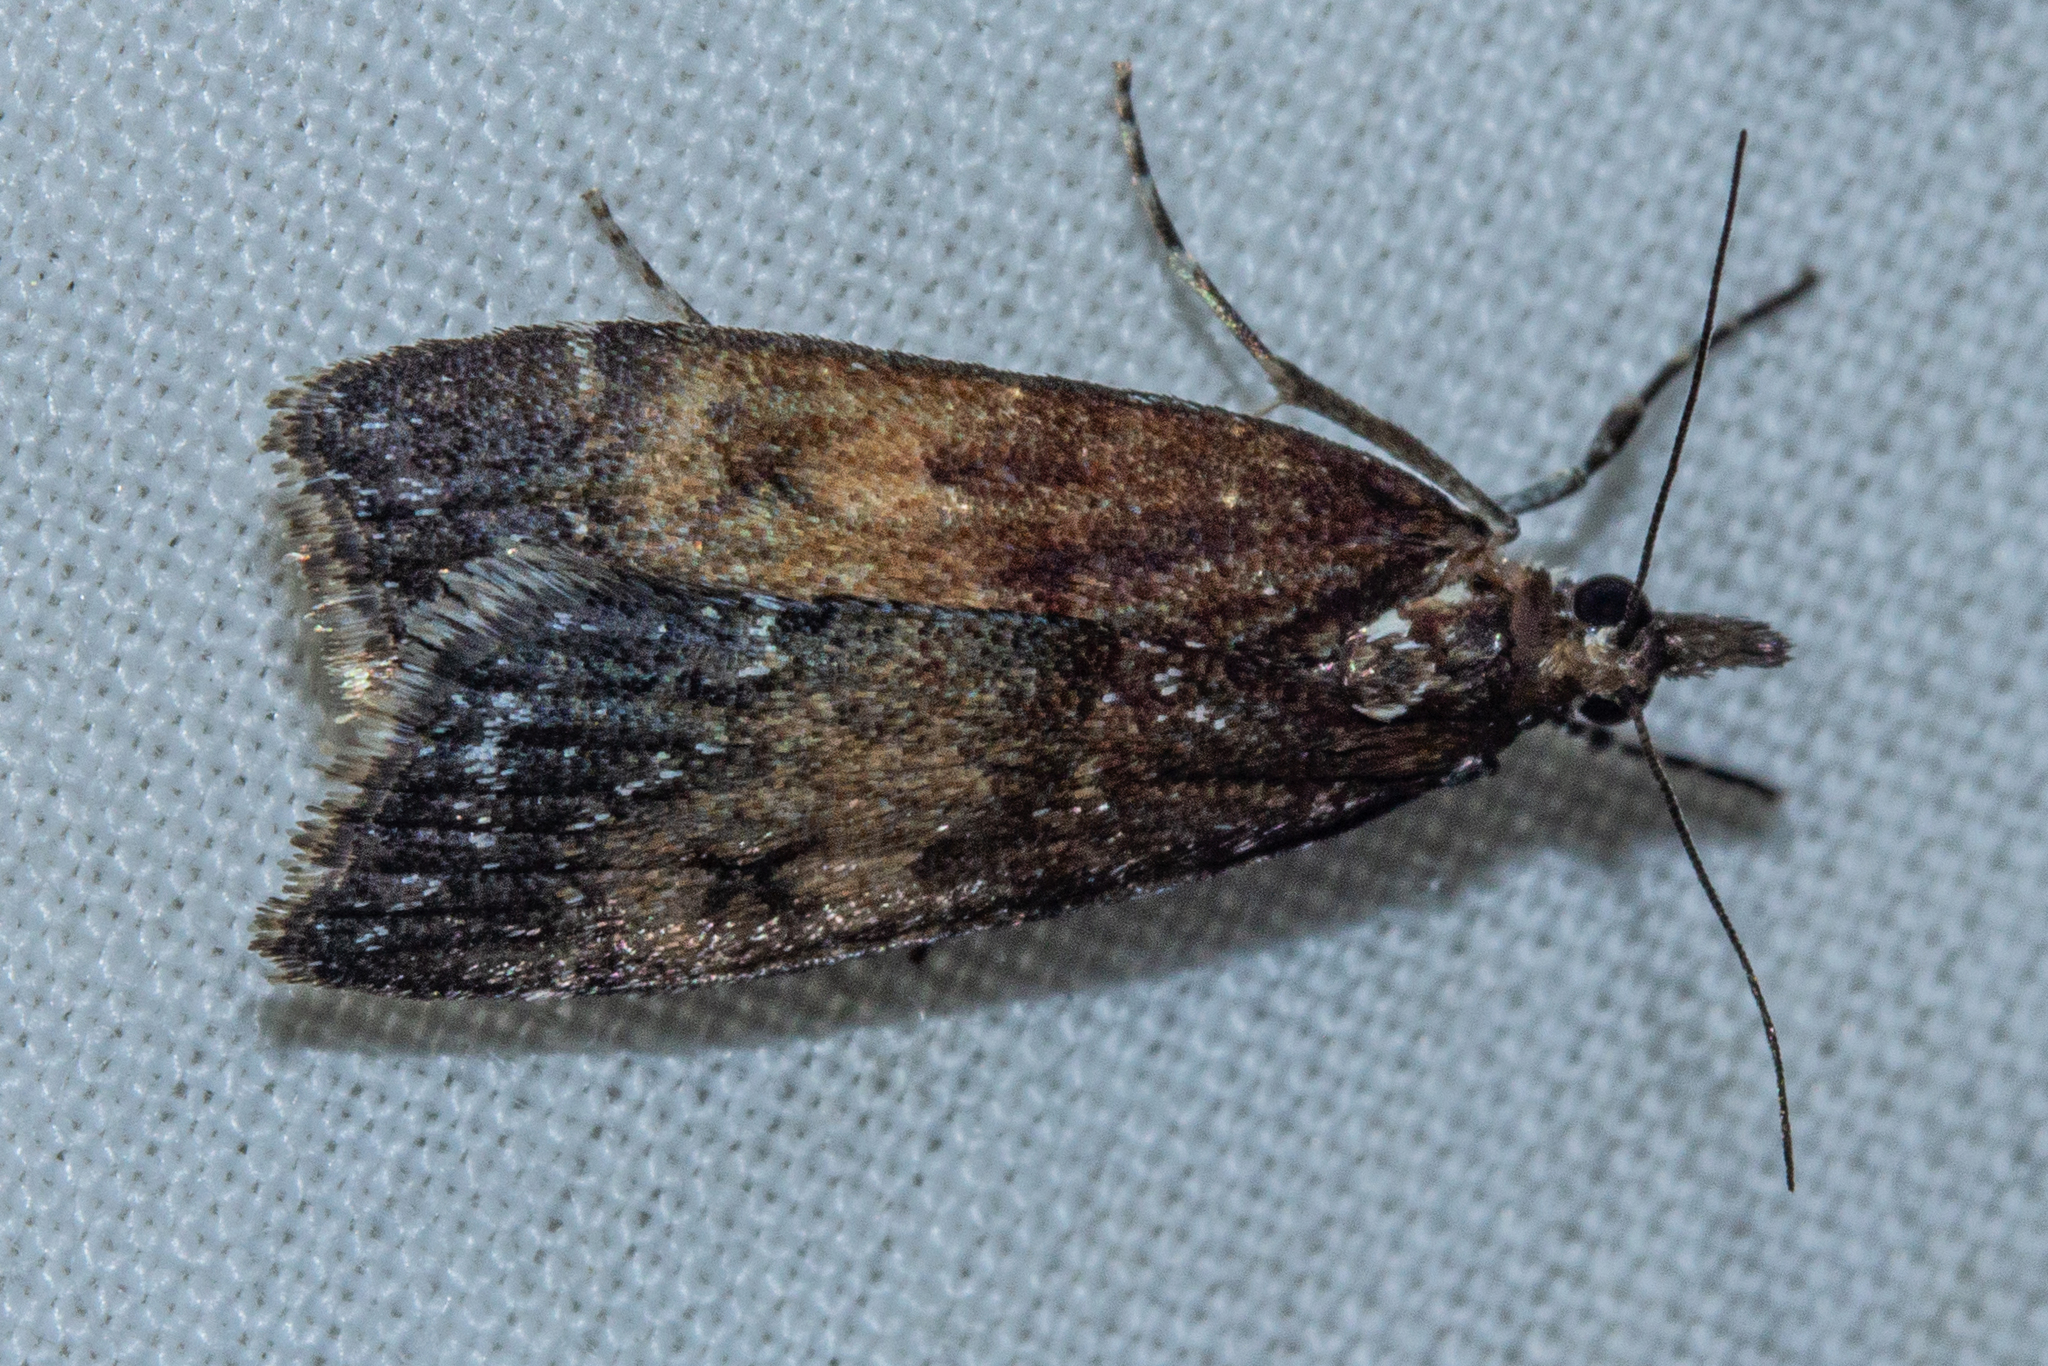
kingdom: Animalia
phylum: Arthropoda
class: Insecta
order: Lepidoptera
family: Crambidae
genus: Eudonia
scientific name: Eudonia asterisca
